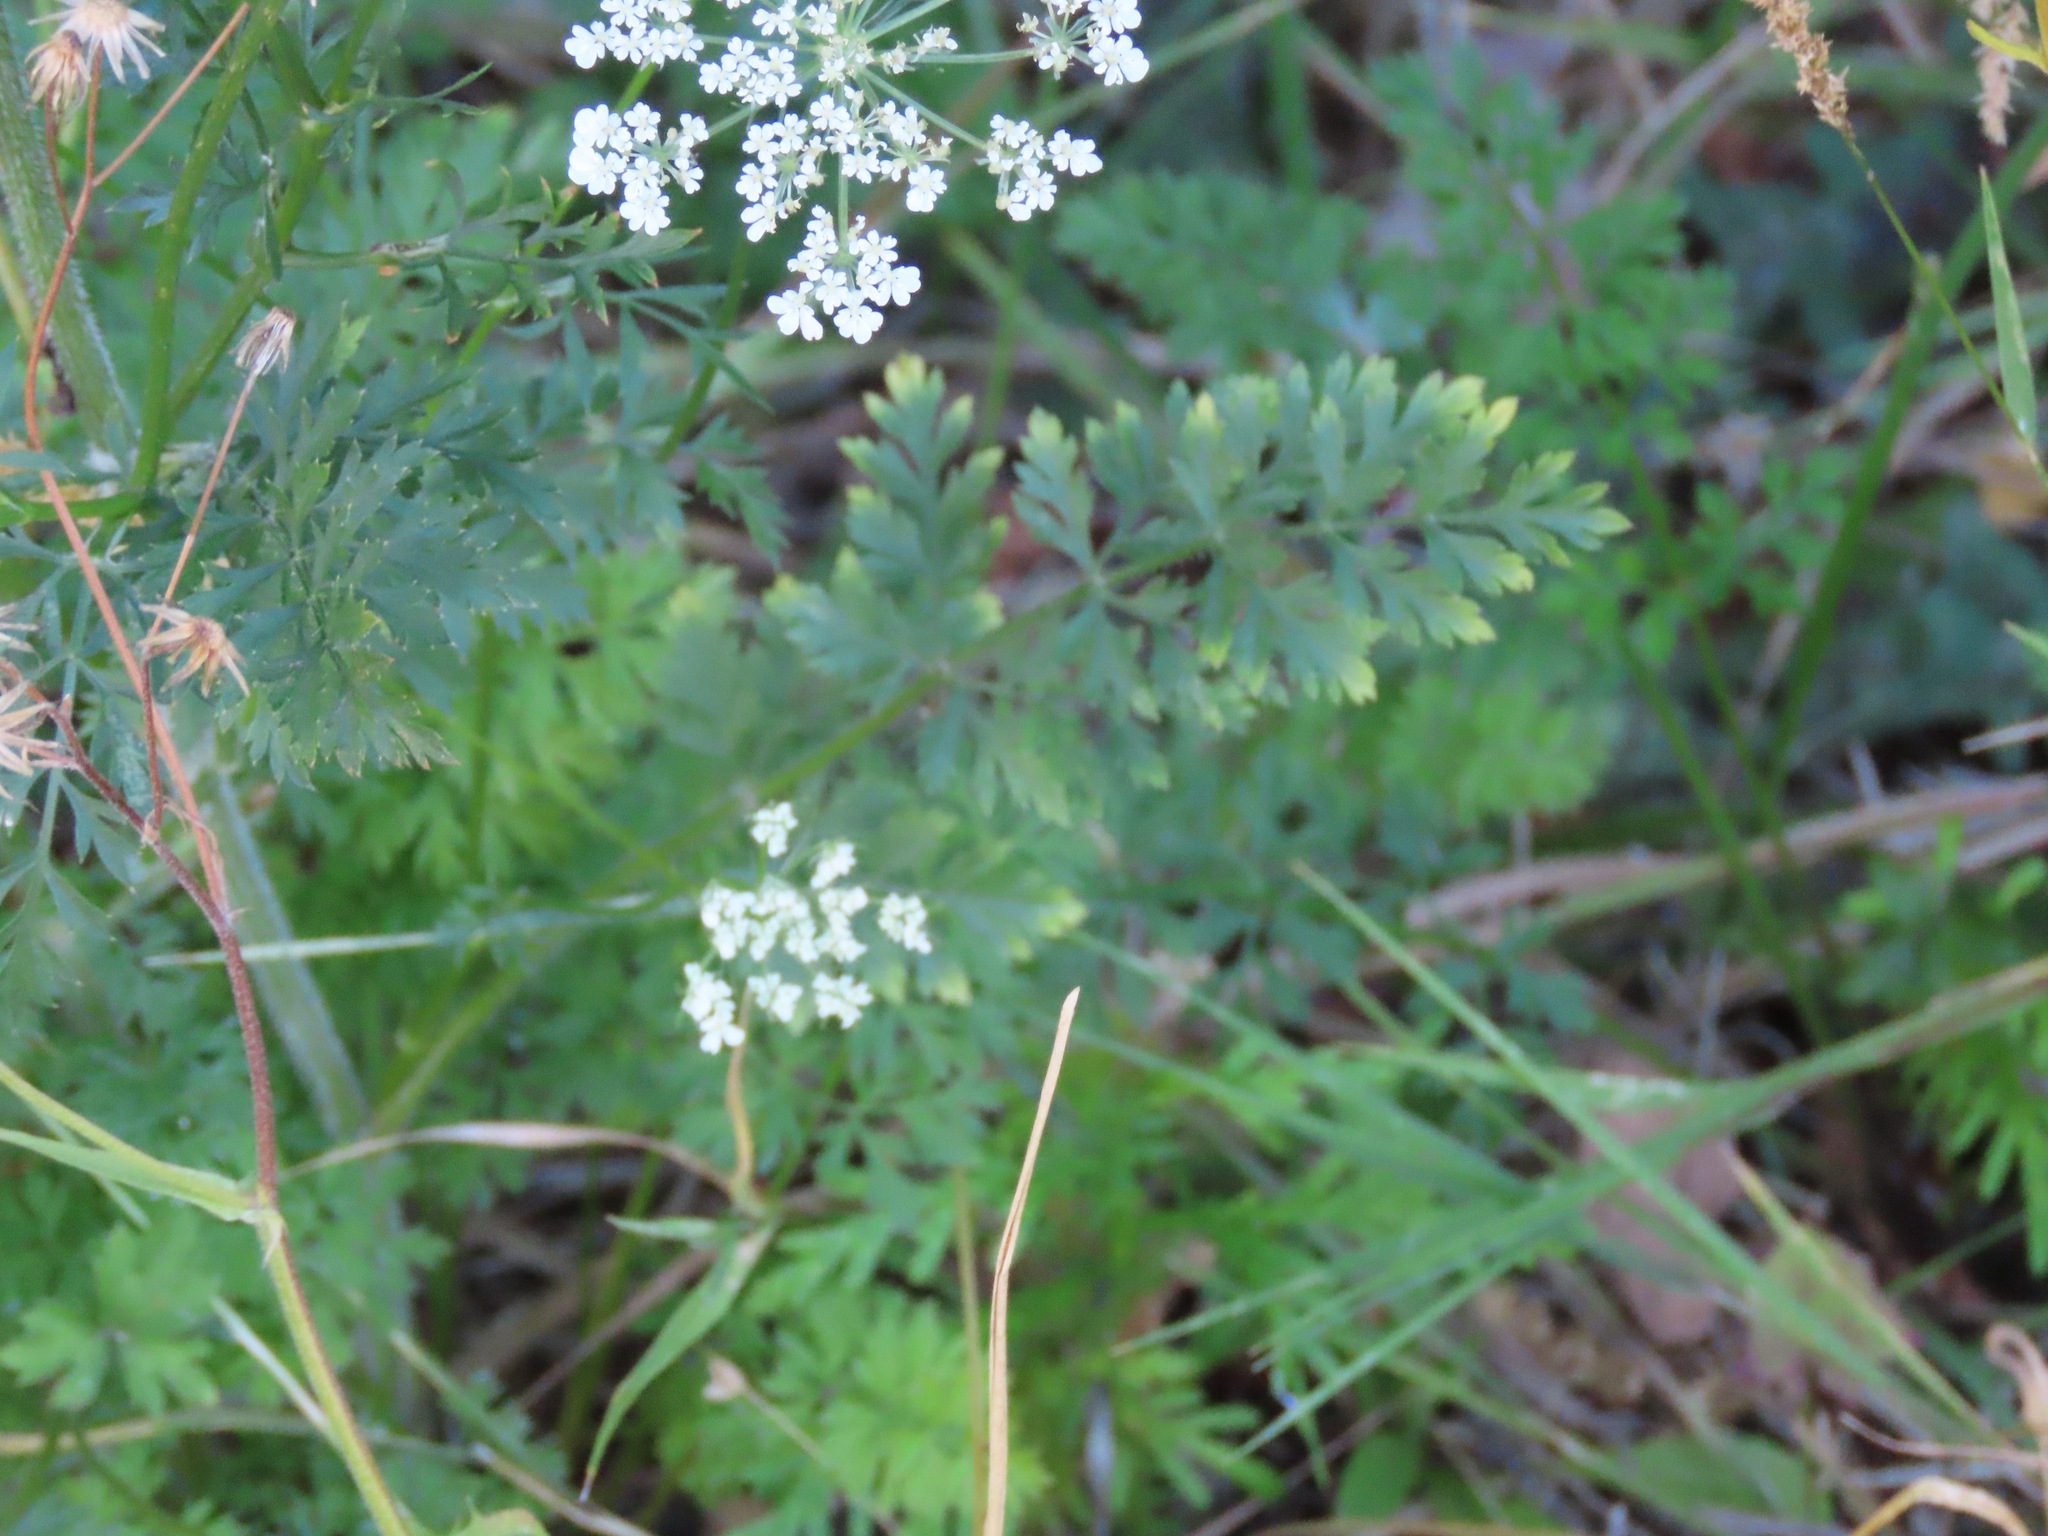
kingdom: Plantae
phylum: Tracheophyta
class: Magnoliopsida
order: Apiales
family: Apiaceae
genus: Daucus
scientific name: Daucus carota
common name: Wild carrot
